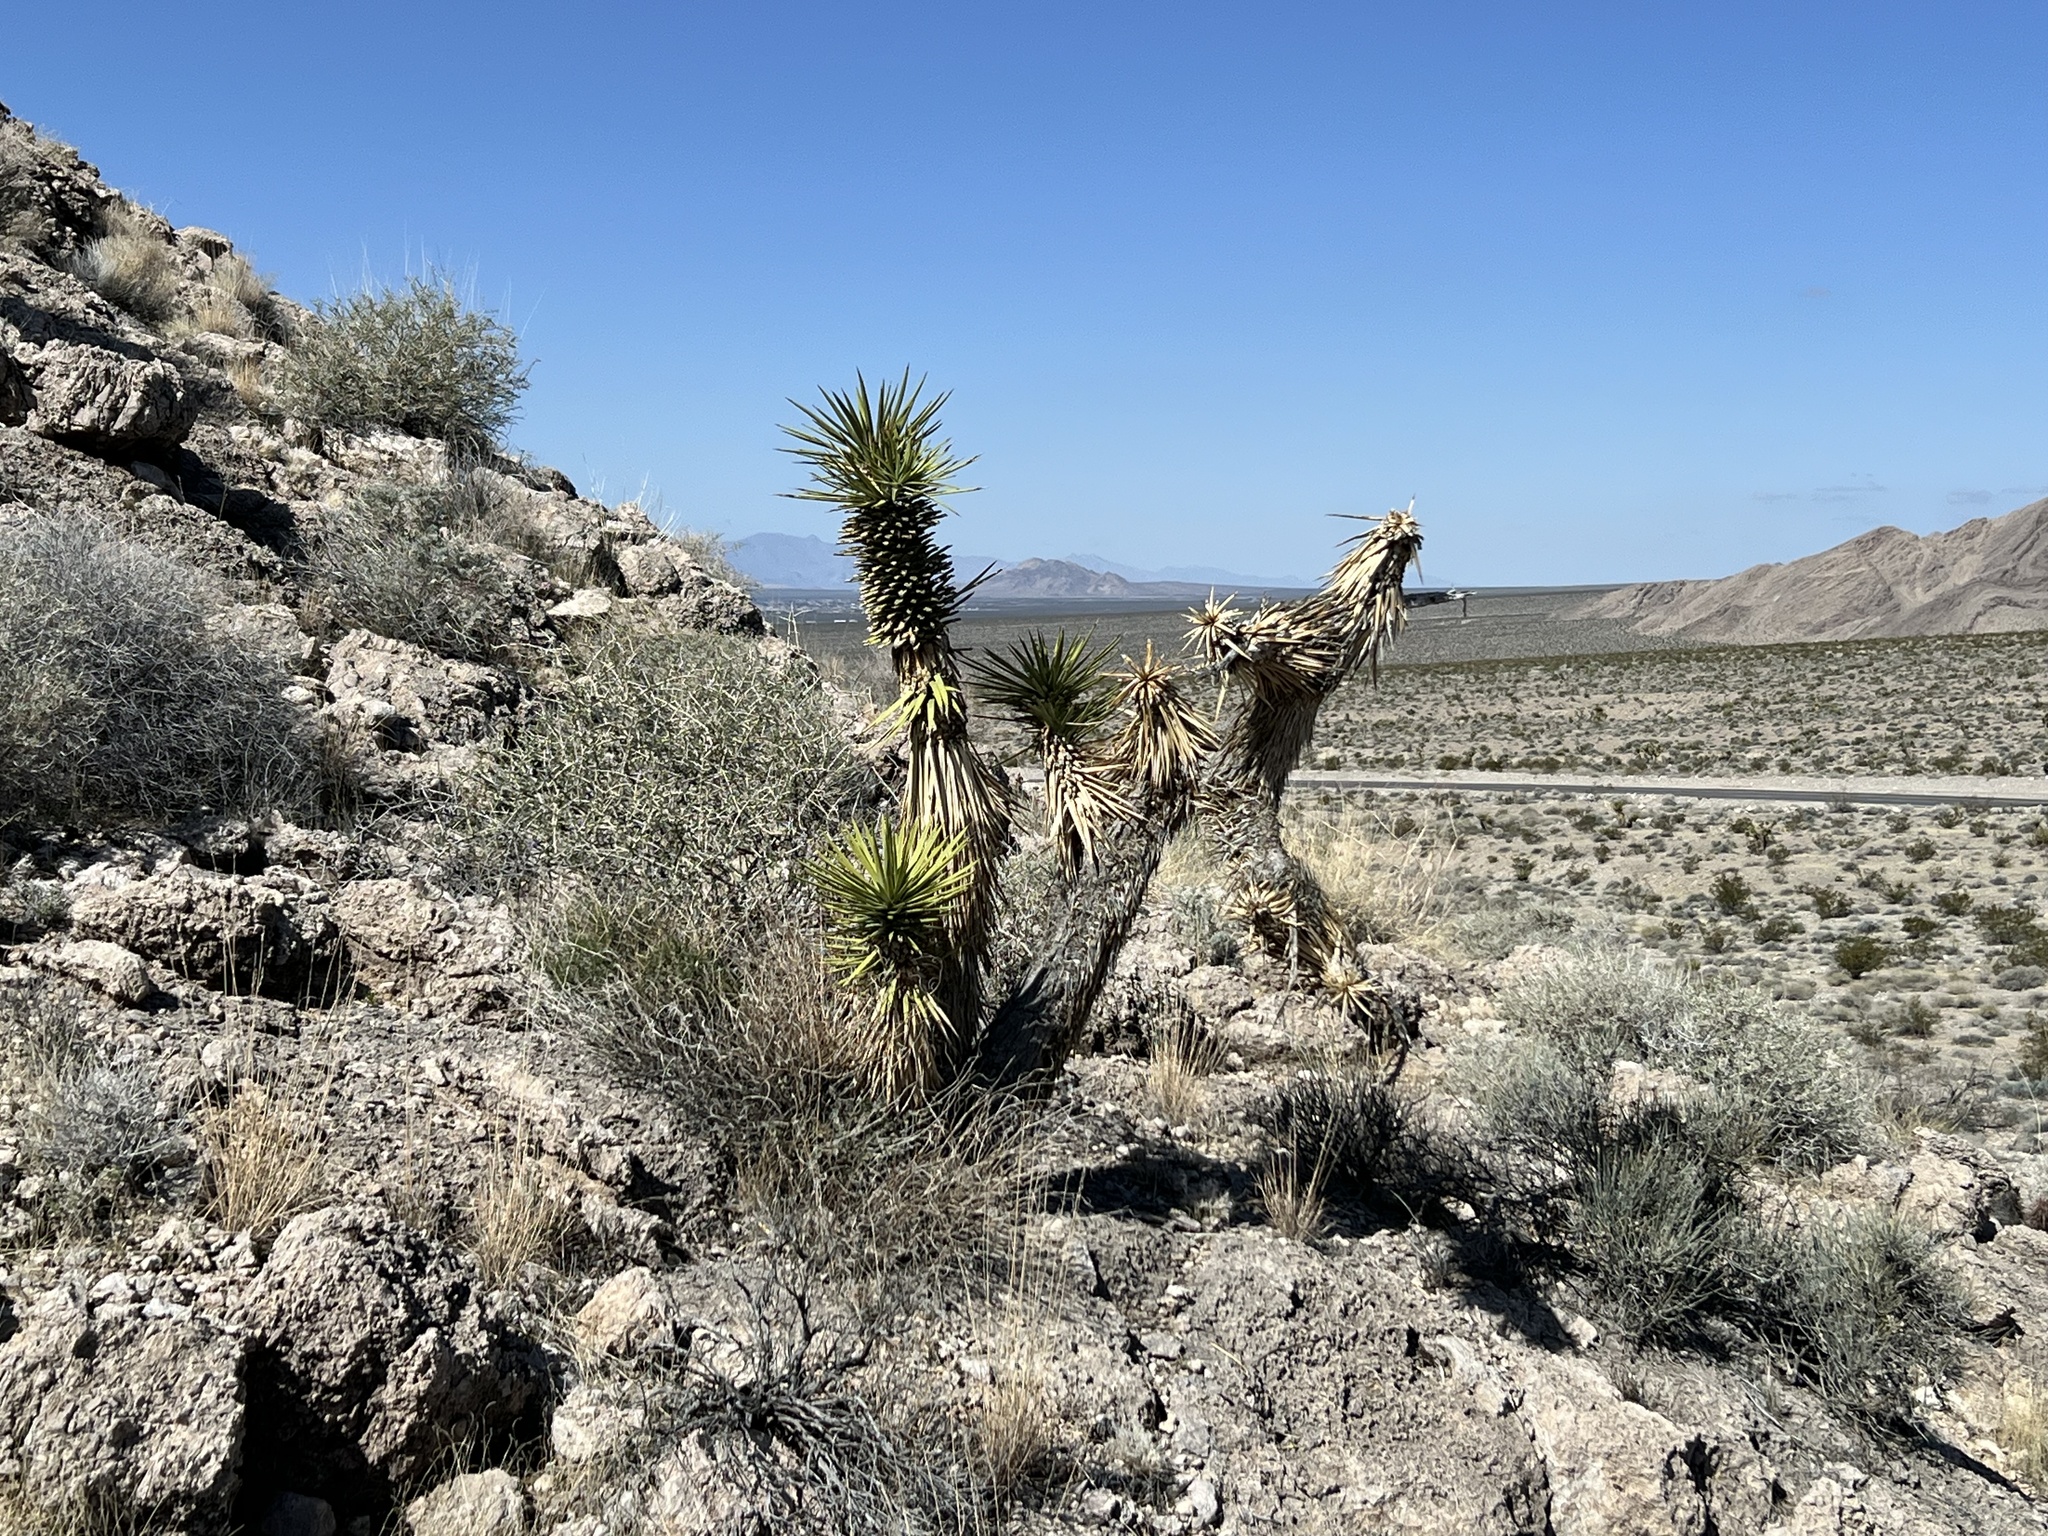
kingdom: Plantae
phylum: Tracheophyta
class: Liliopsida
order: Asparagales
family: Asparagaceae
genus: Yucca
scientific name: Yucca brevifolia
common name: Joshua tree
